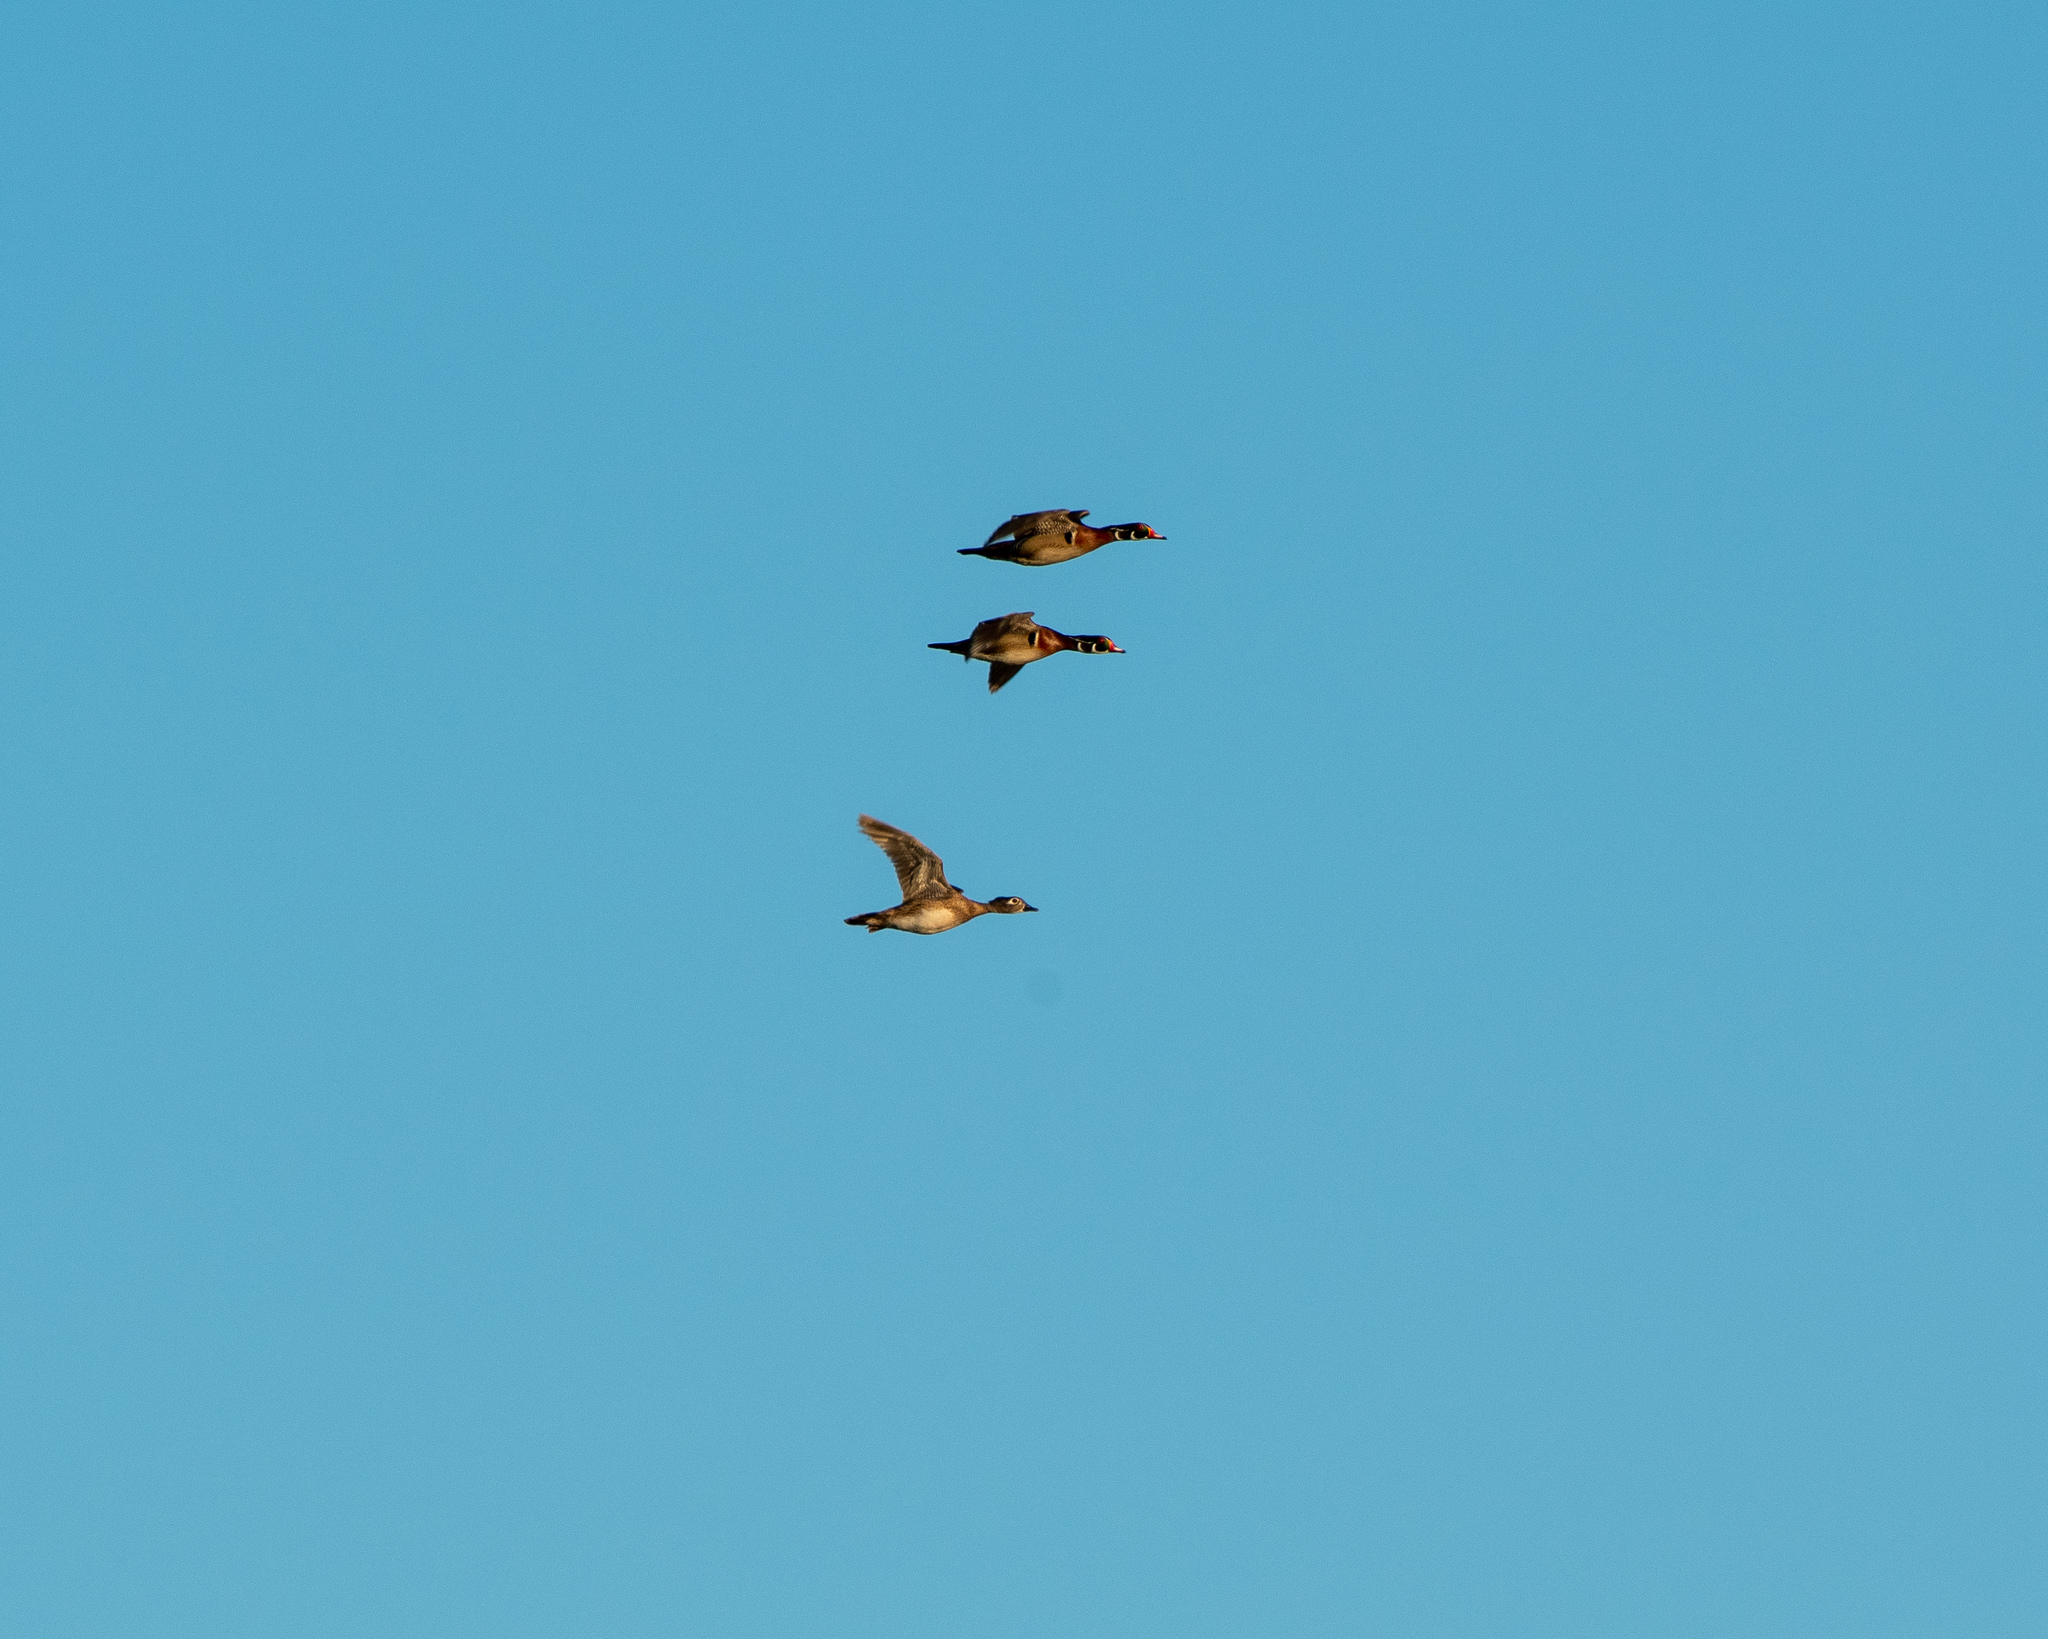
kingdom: Animalia
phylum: Chordata
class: Aves
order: Anseriformes
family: Anatidae
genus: Aix
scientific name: Aix sponsa
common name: Wood duck
